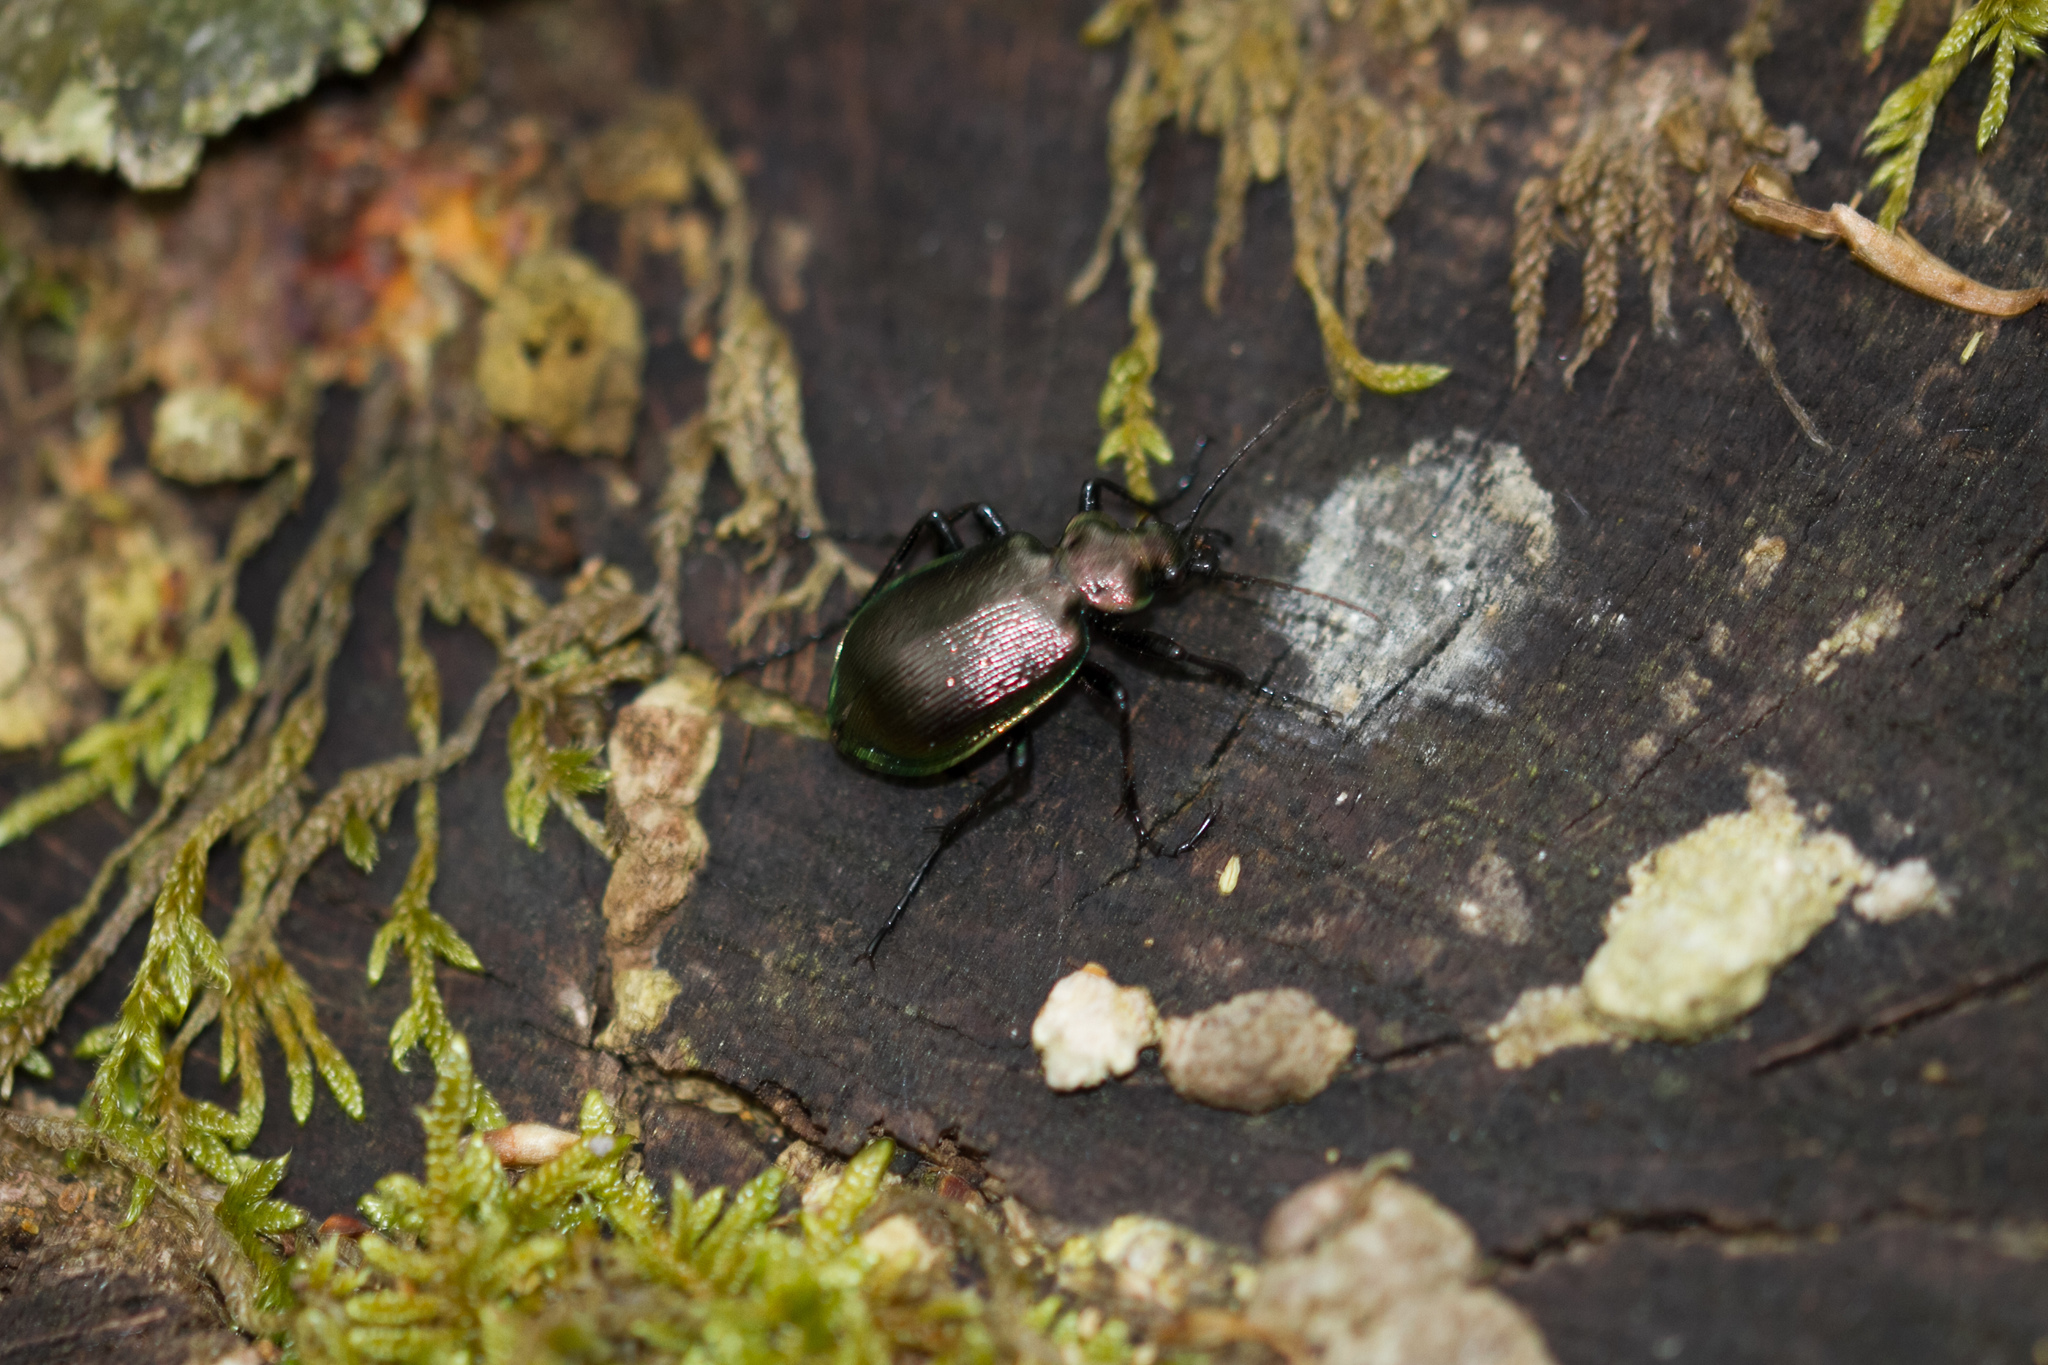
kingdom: Animalia
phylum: Arthropoda
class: Insecta
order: Coleoptera
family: Carabidae
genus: Calosoma
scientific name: Calosoma inquisitor
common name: Caterpillar-hunter
